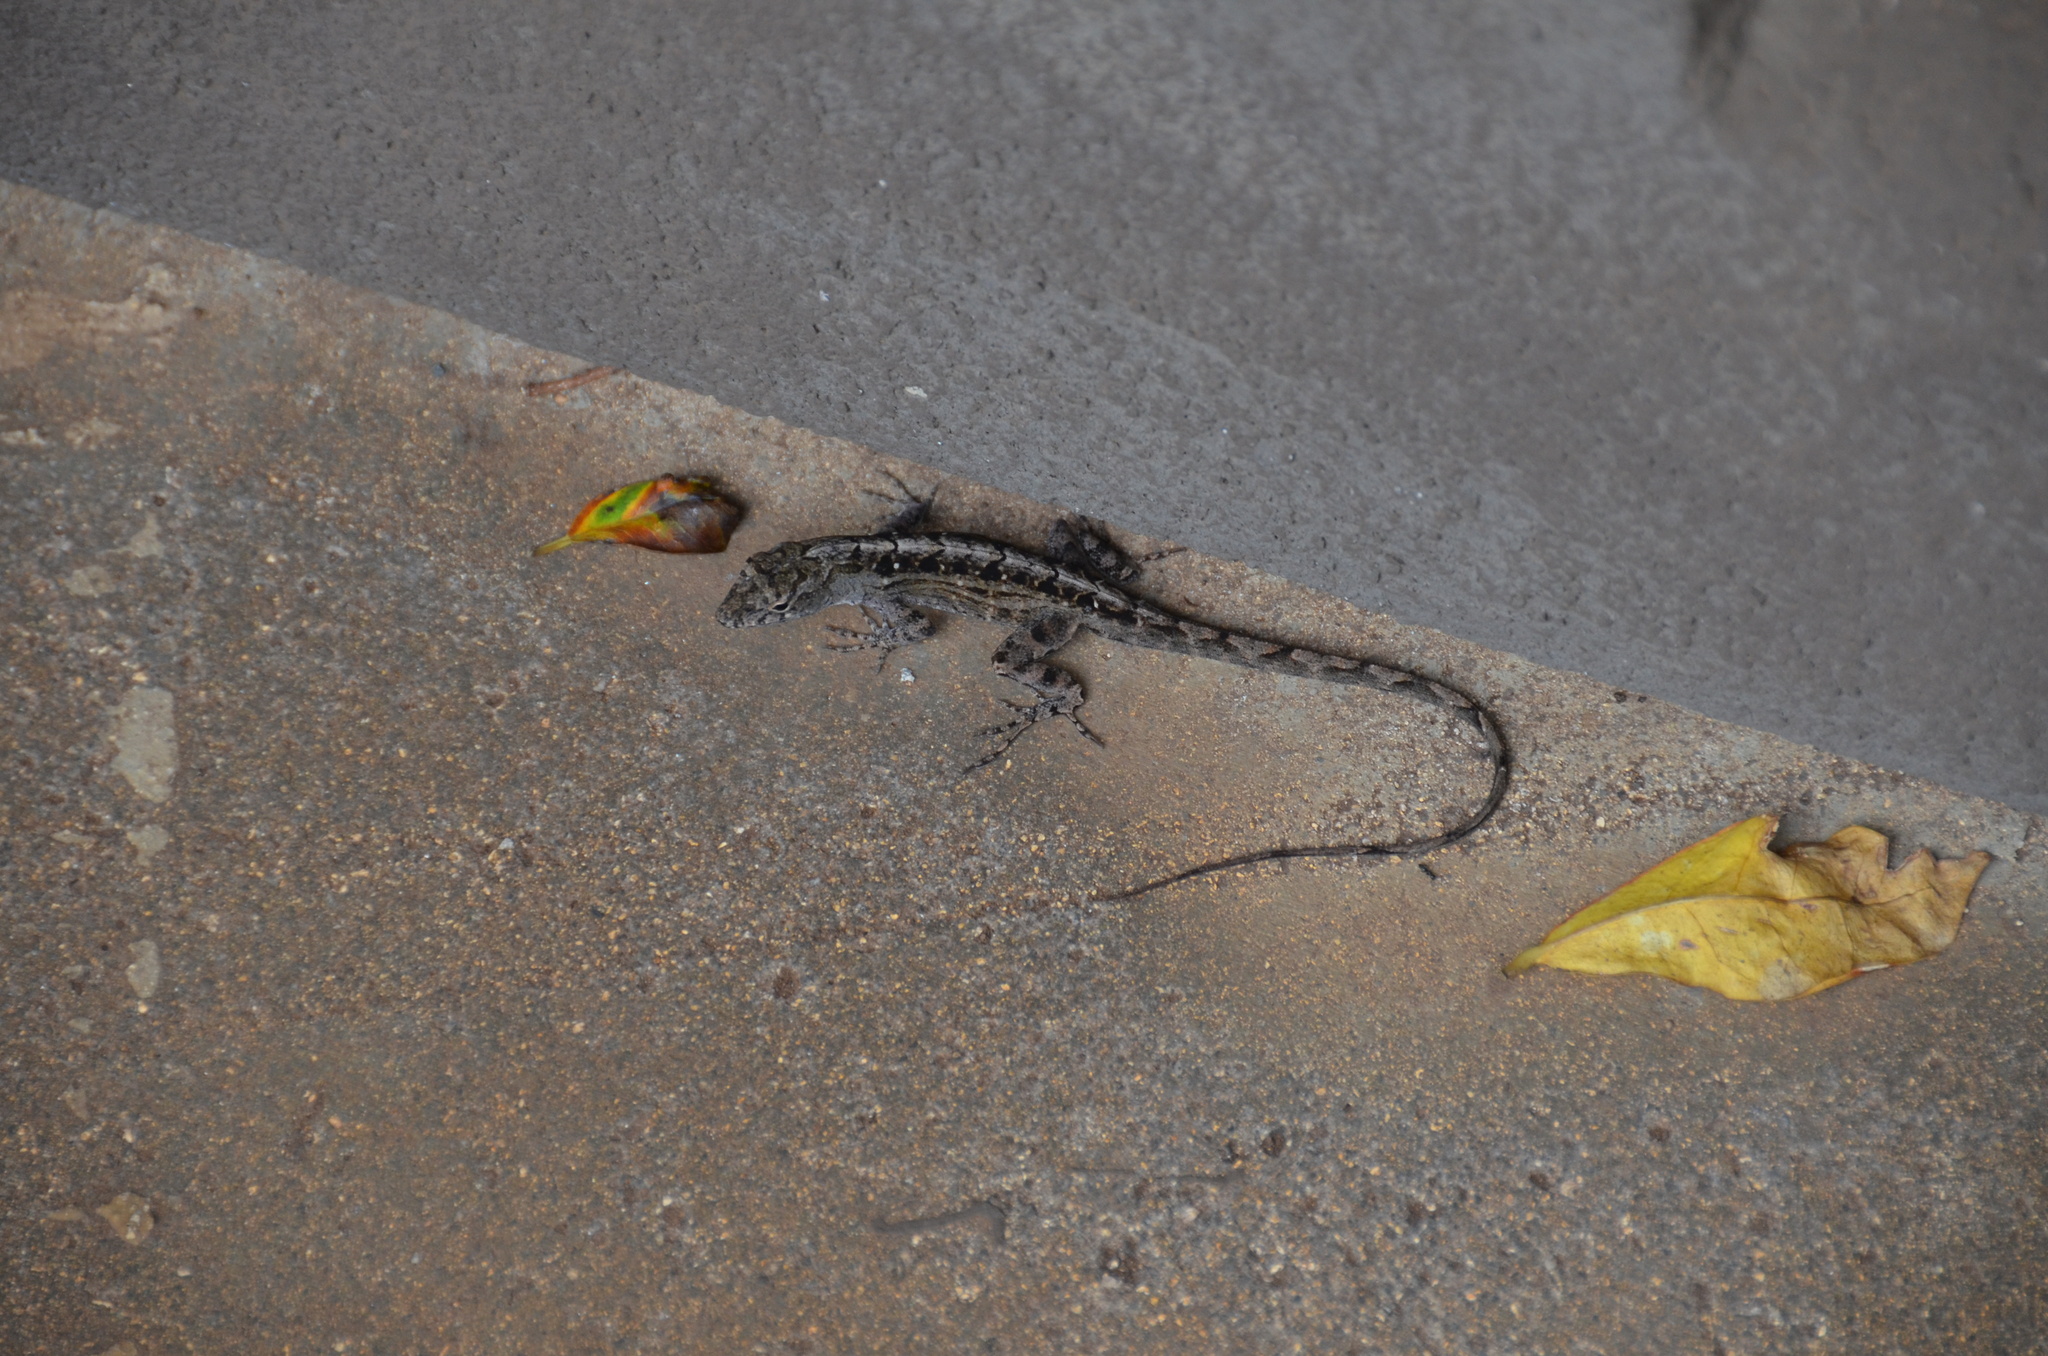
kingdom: Animalia
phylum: Chordata
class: Squamata
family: Dactyloidae
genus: Anolis
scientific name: Anolis sagrei
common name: Brown anole
